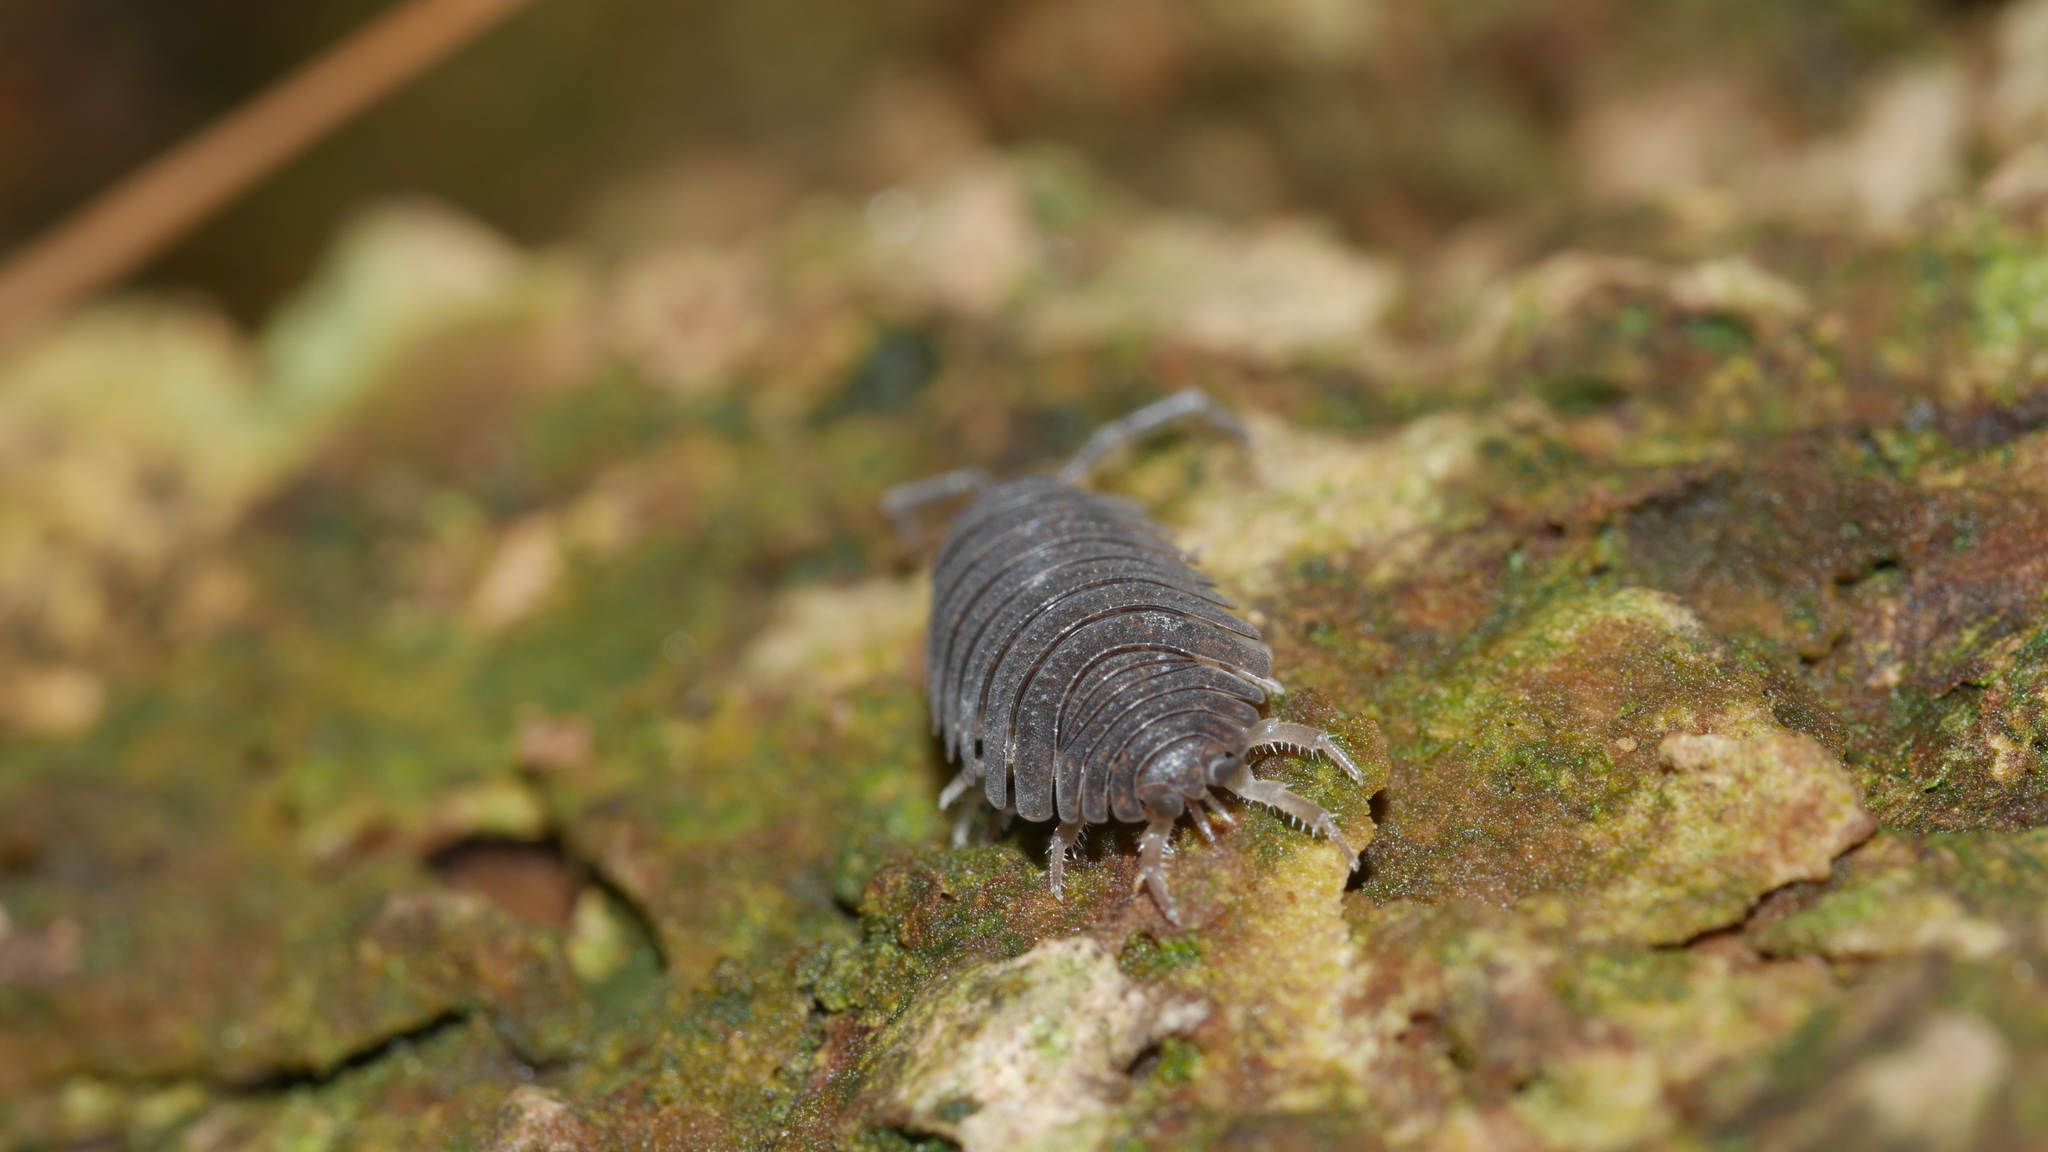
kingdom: Animalia
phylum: Arthropoda
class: Malacostraca
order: Isopoda
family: Porcellionidae
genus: Porcellio
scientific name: Porcellio scaber
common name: Common rough woodlouse
